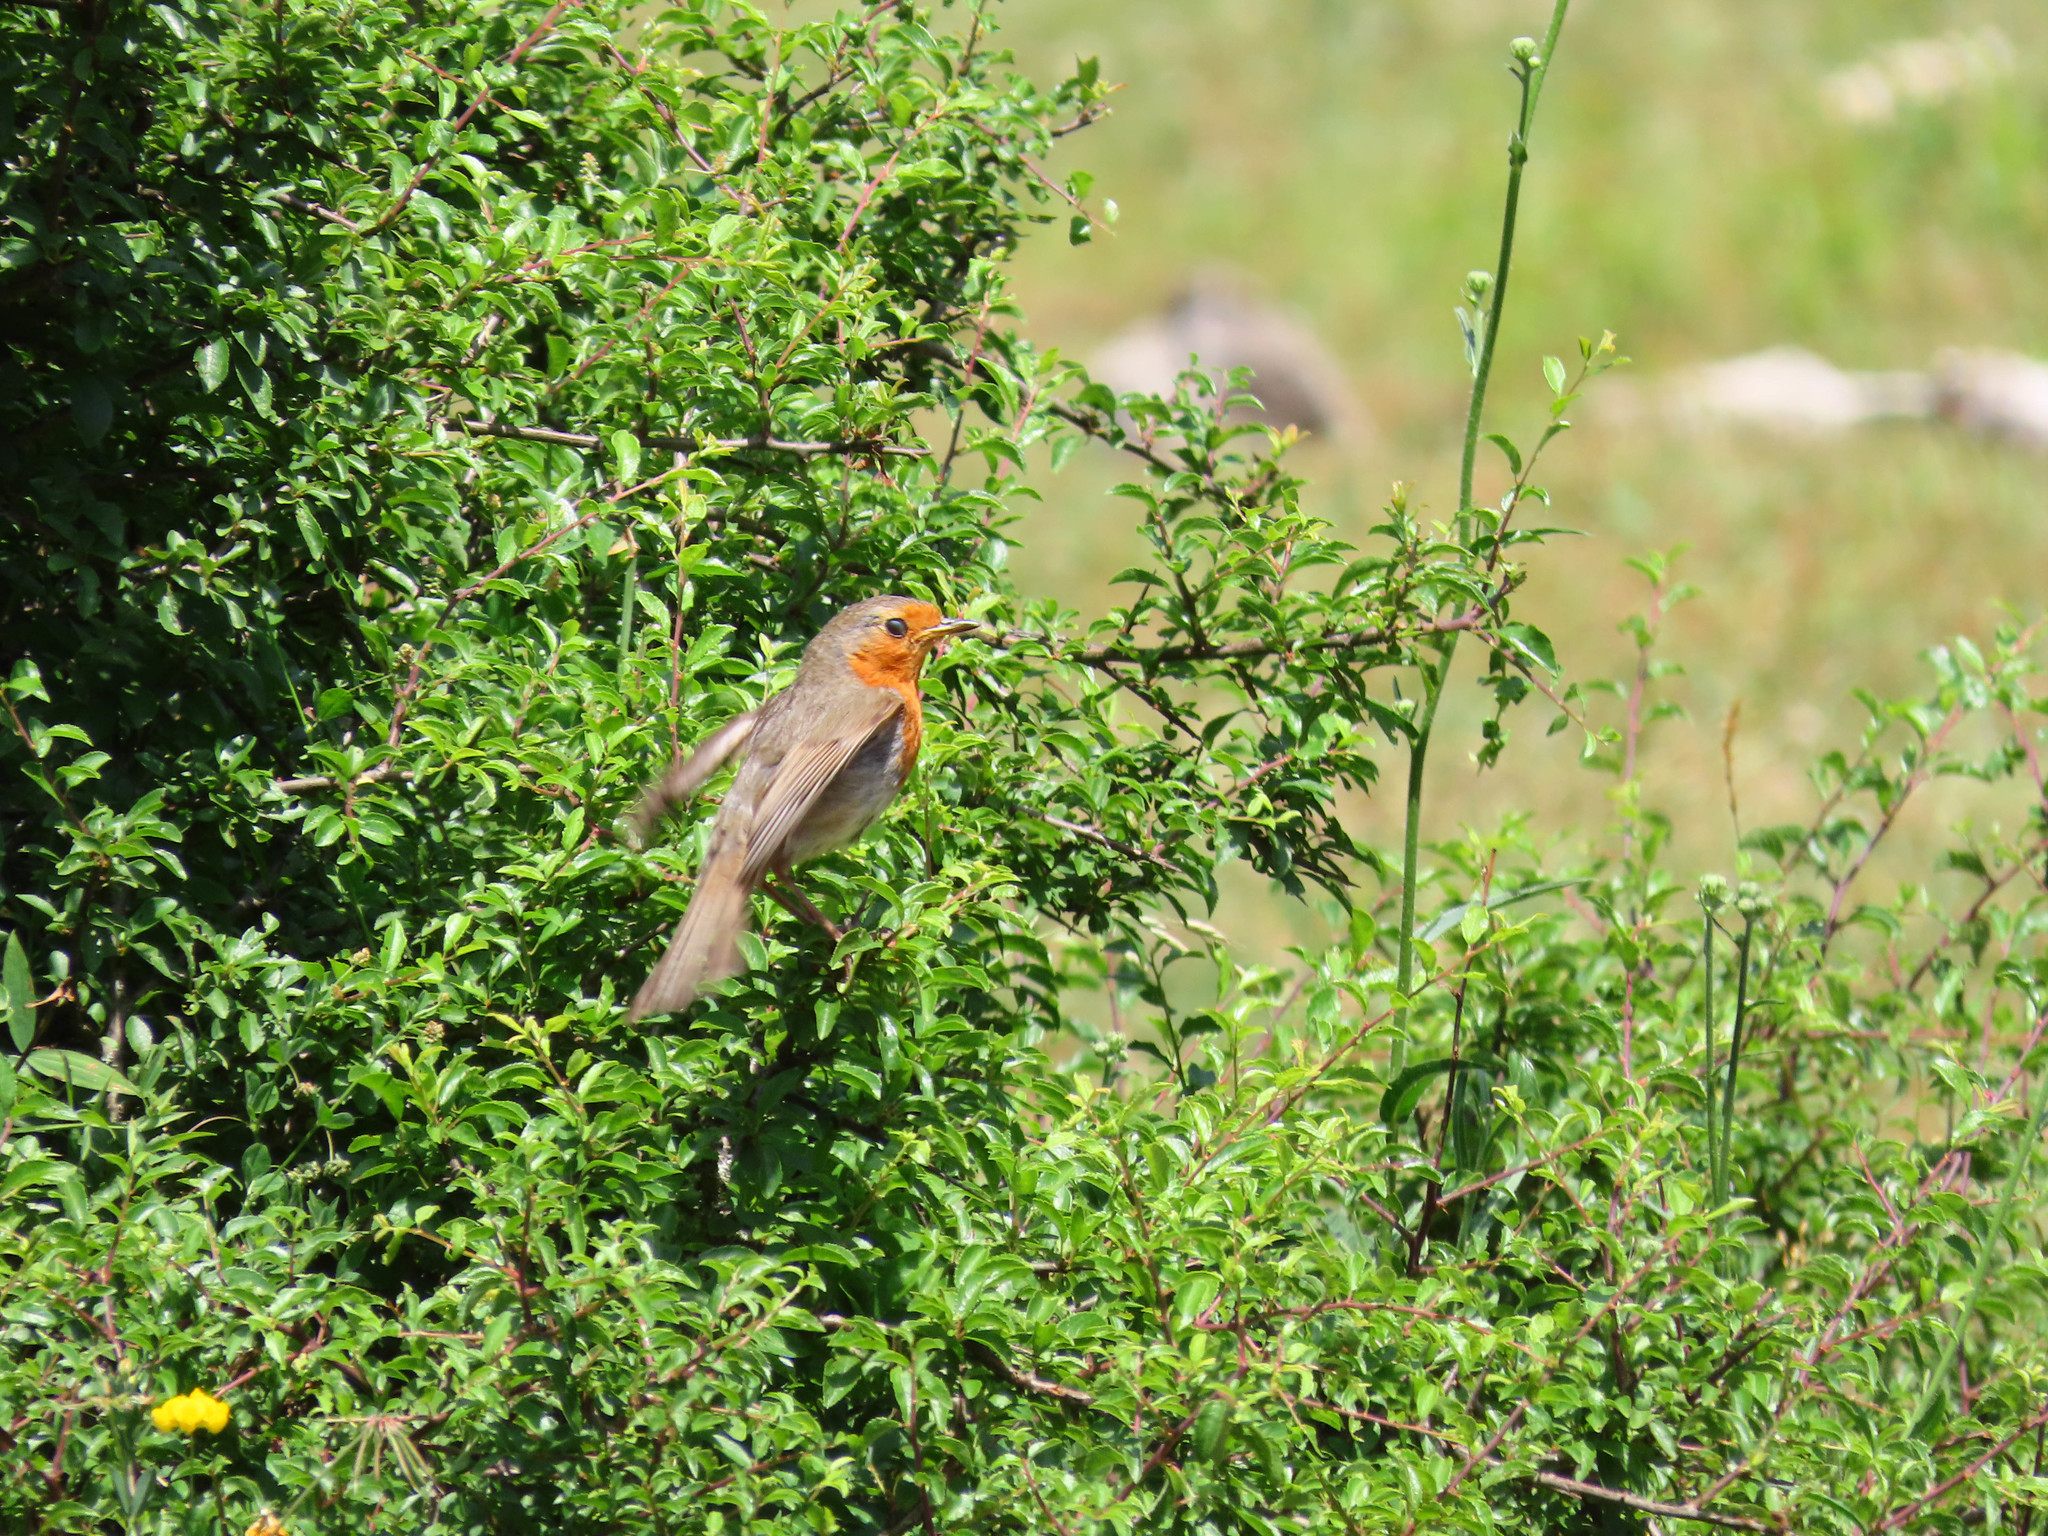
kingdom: Animalia
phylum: Chordata
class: Aves
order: Passeriformes
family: Muscicapidae
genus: Erithacus
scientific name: Erithacus rubecula
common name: European robin
